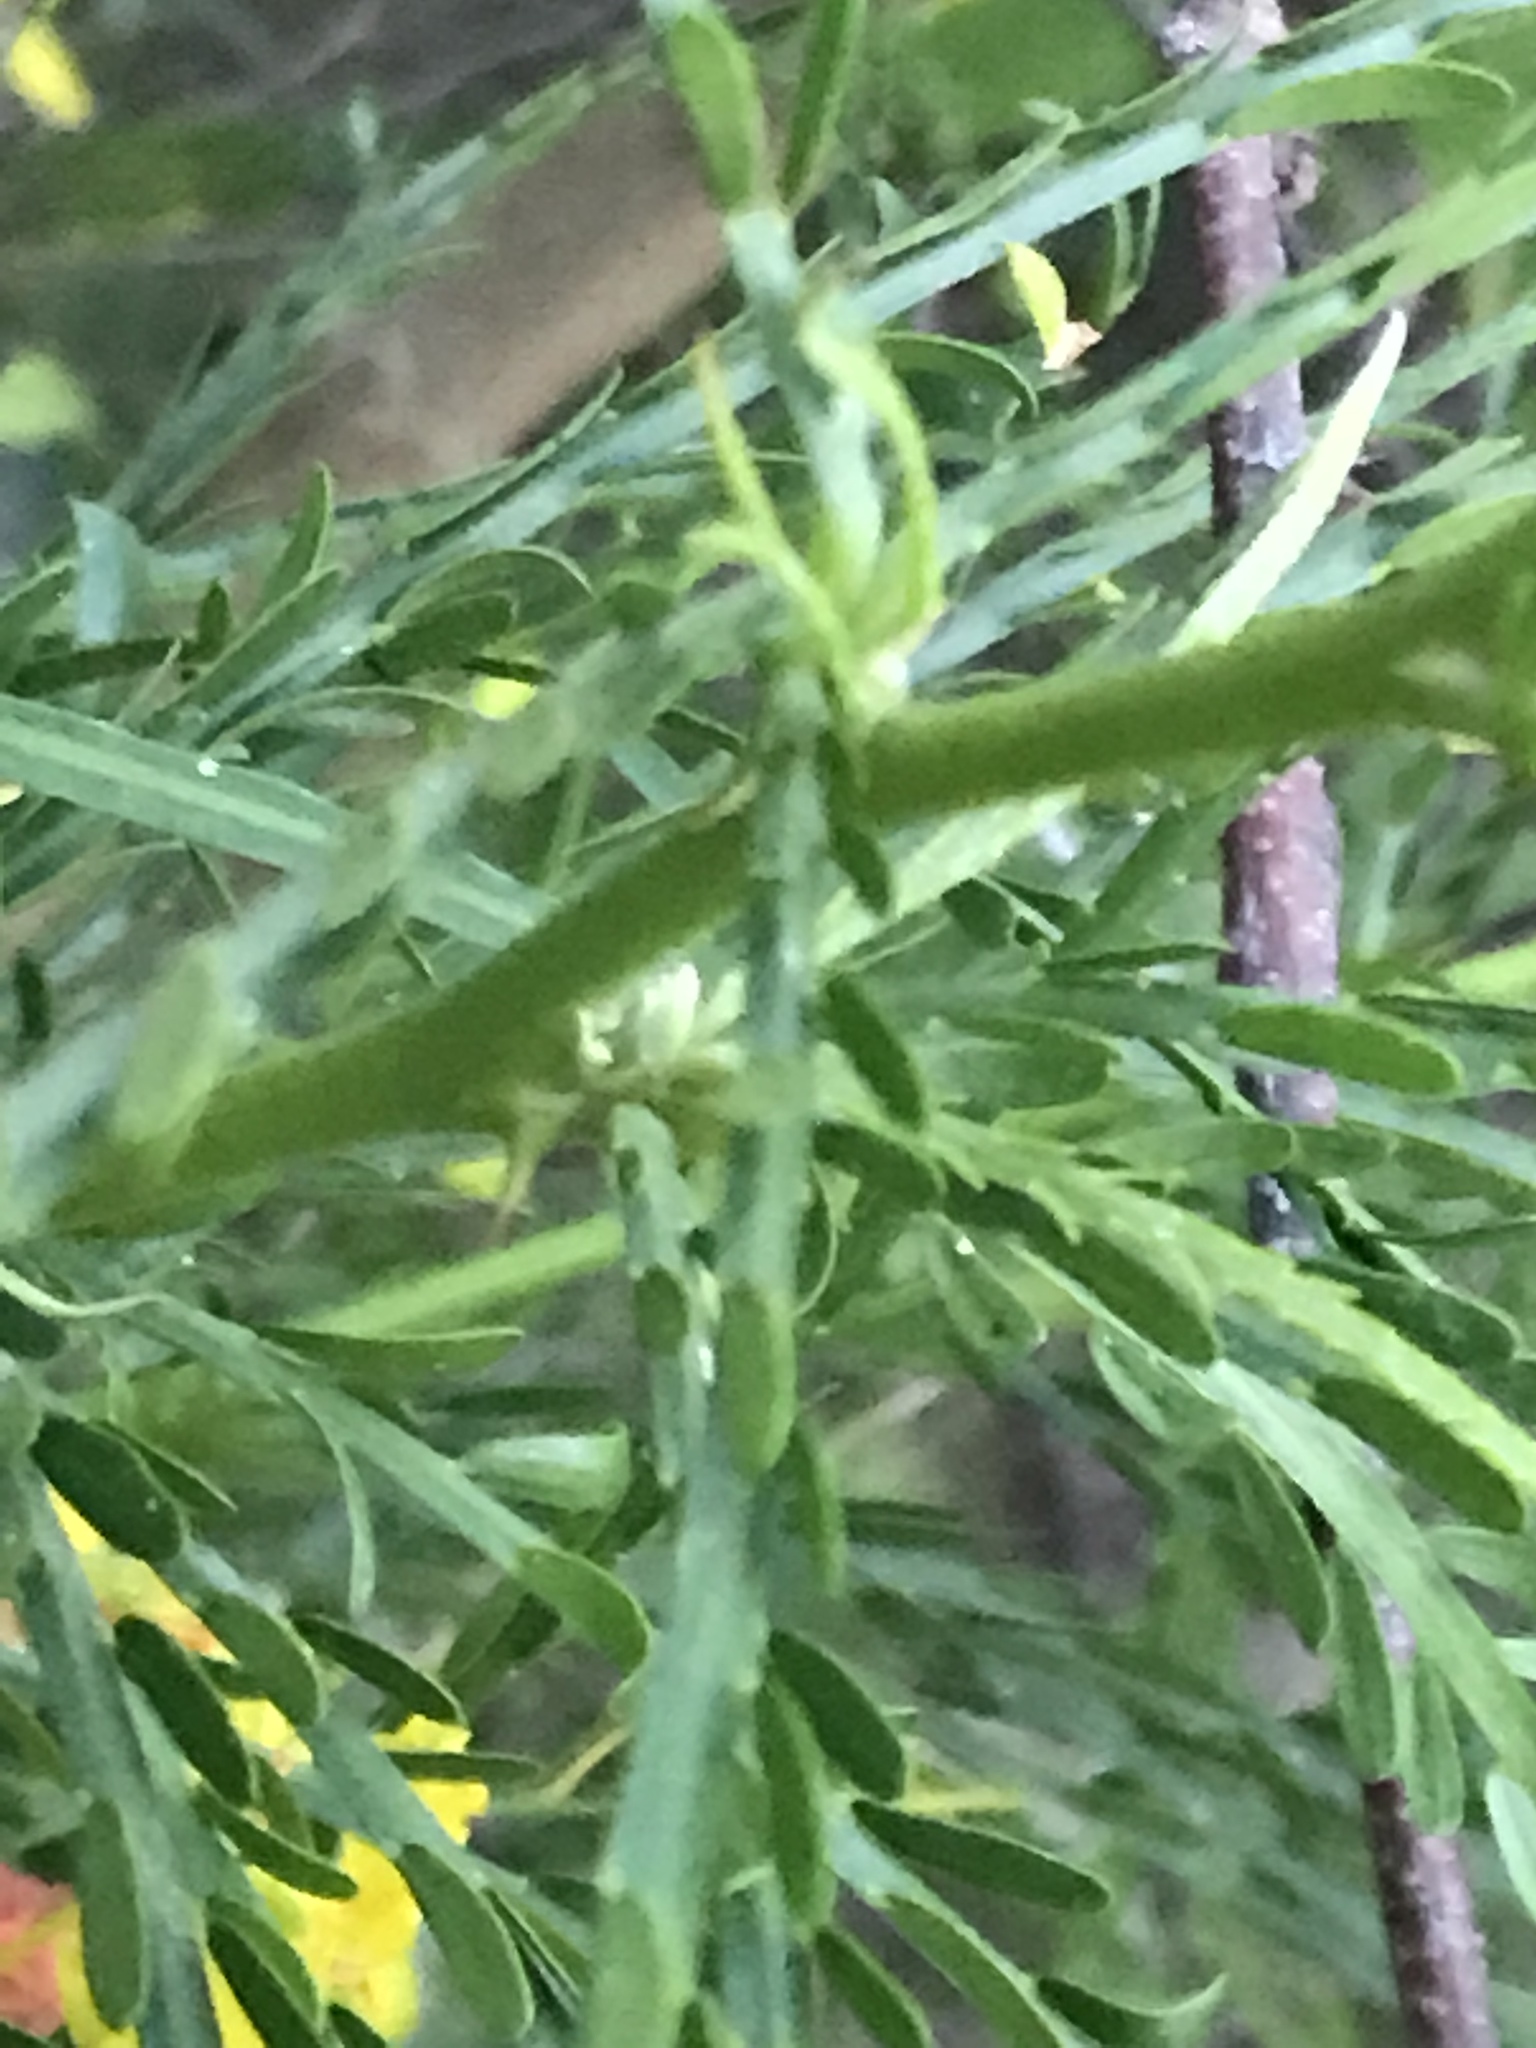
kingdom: Plantae
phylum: Tracheophyta
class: Magnoliopsida
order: Fabales
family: Fabaceae
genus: Parkinsonia
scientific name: Parkinsonia aculeata
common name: Jerusalem thorn
